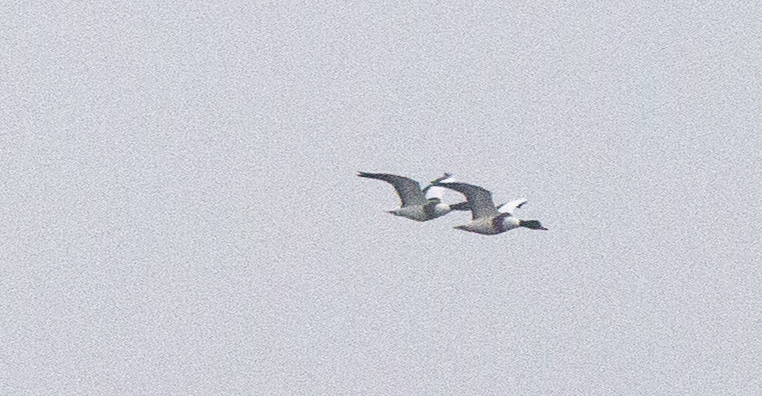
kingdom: Animalia
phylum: Chordata
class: Aves
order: Anseriformes
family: Anatidae
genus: Tadorna
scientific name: Tadorna tadorna
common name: Common shelduck
